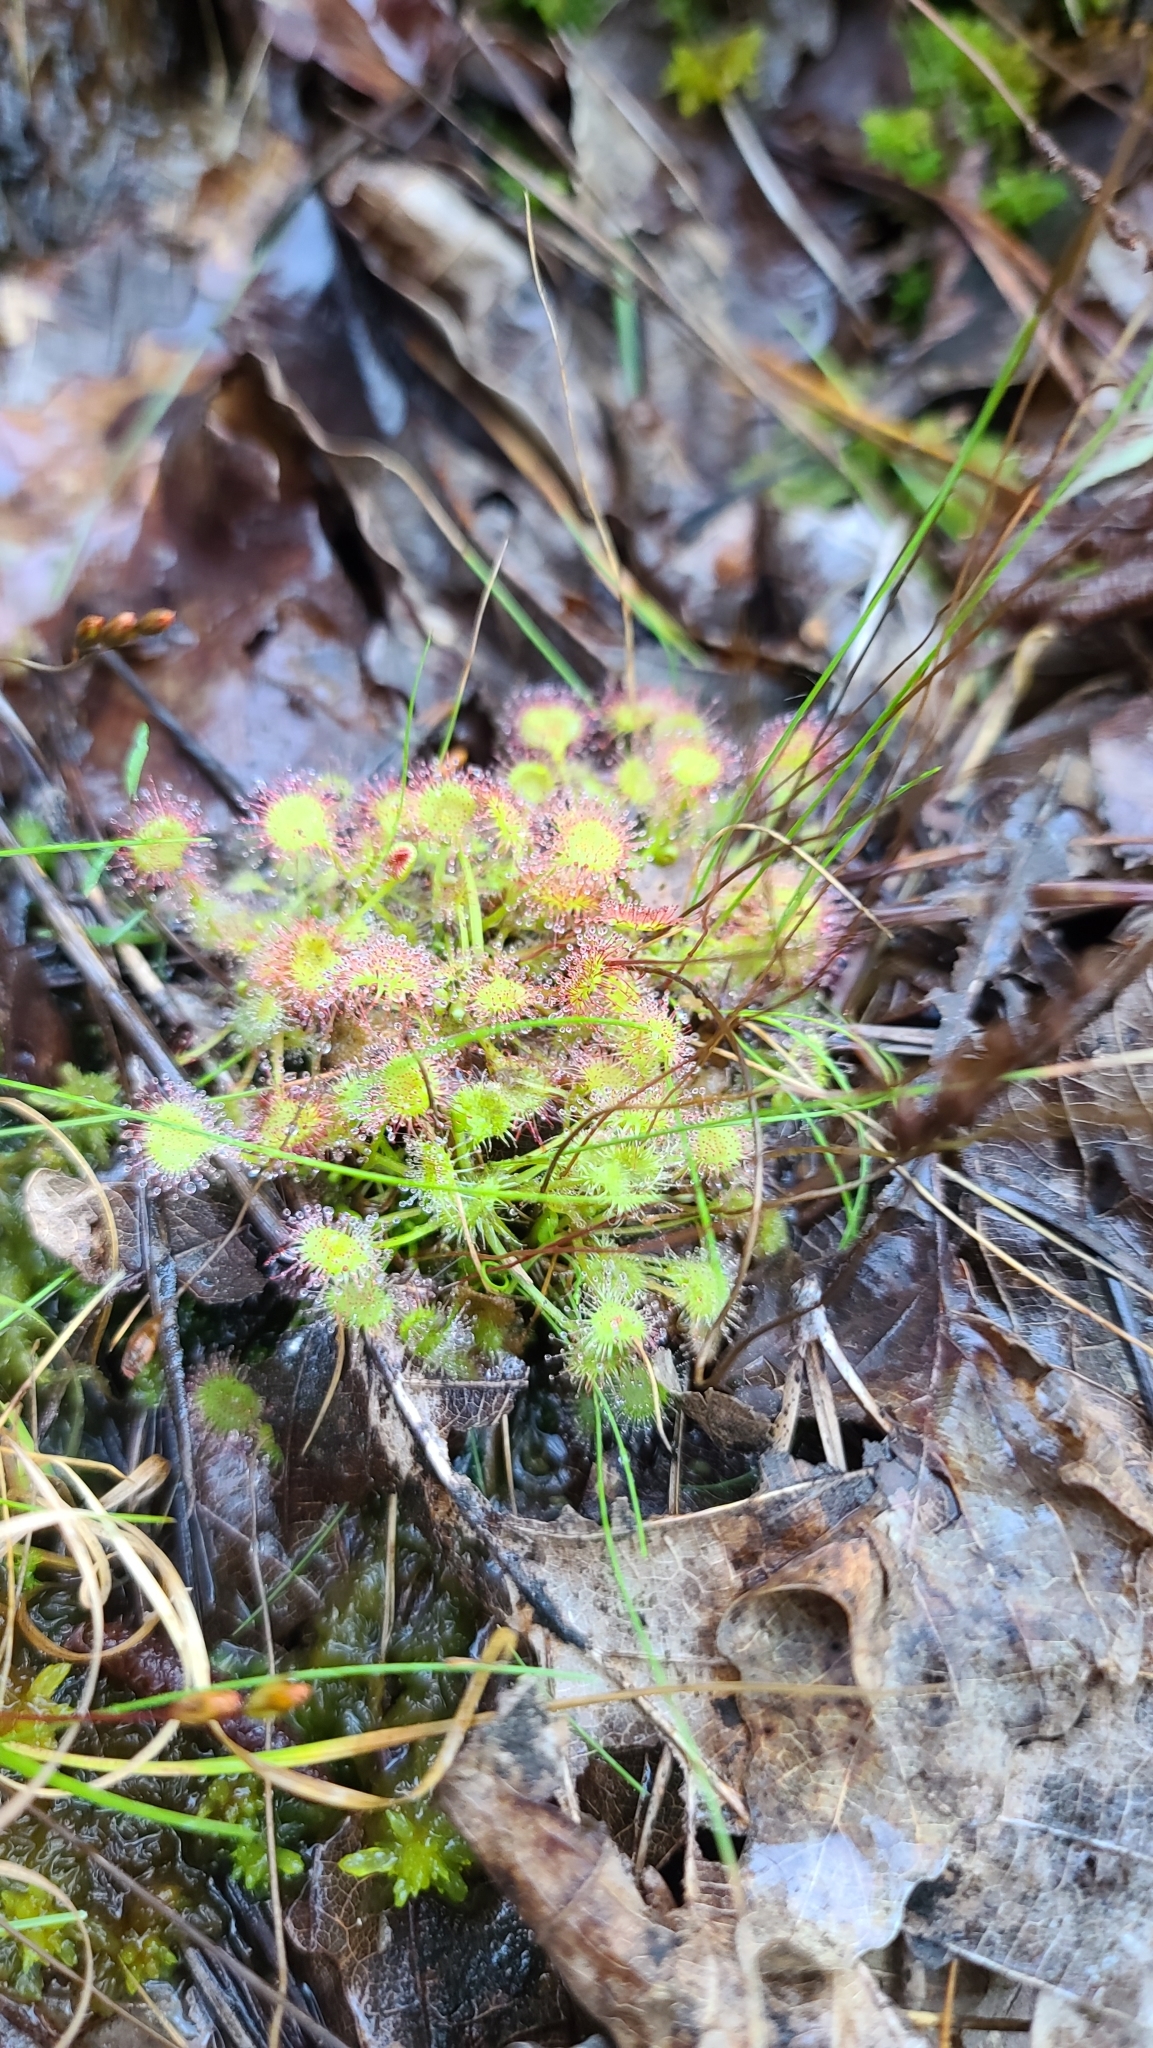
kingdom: Plantae
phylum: Tracheophyta
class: Magnoliopsida
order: Caryophyllales
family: Droseraceae
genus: Drosera
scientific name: Drosera rotundifolia
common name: Round-leaved sundew
